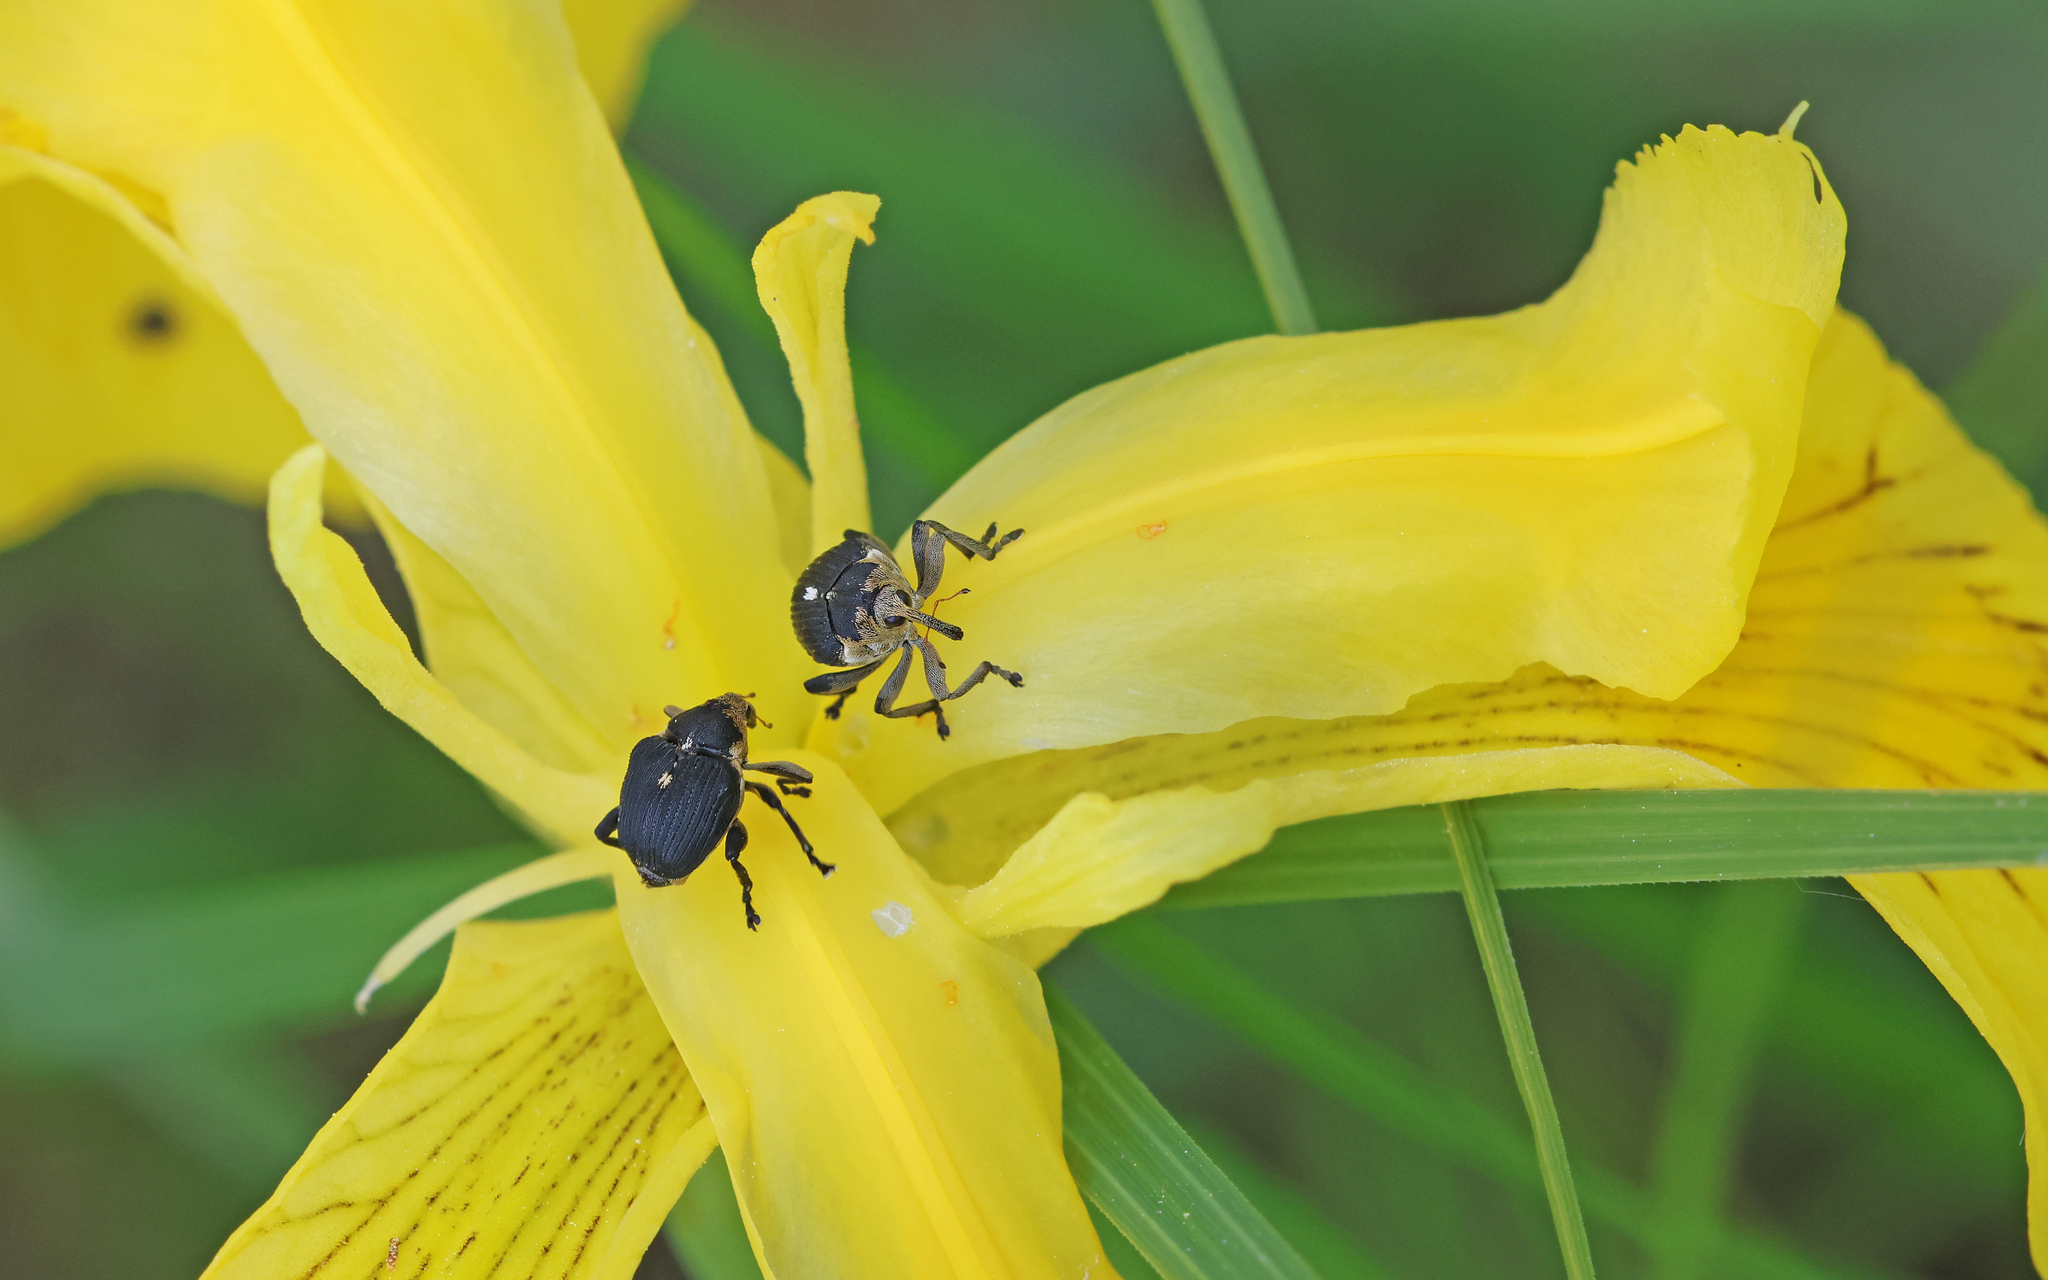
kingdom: Animalia
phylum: Arthropoda
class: Insecta
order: Coleoptera
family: Curculionidae
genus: Mononychus
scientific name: Mononychus punctumalbum
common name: Iris weevil
